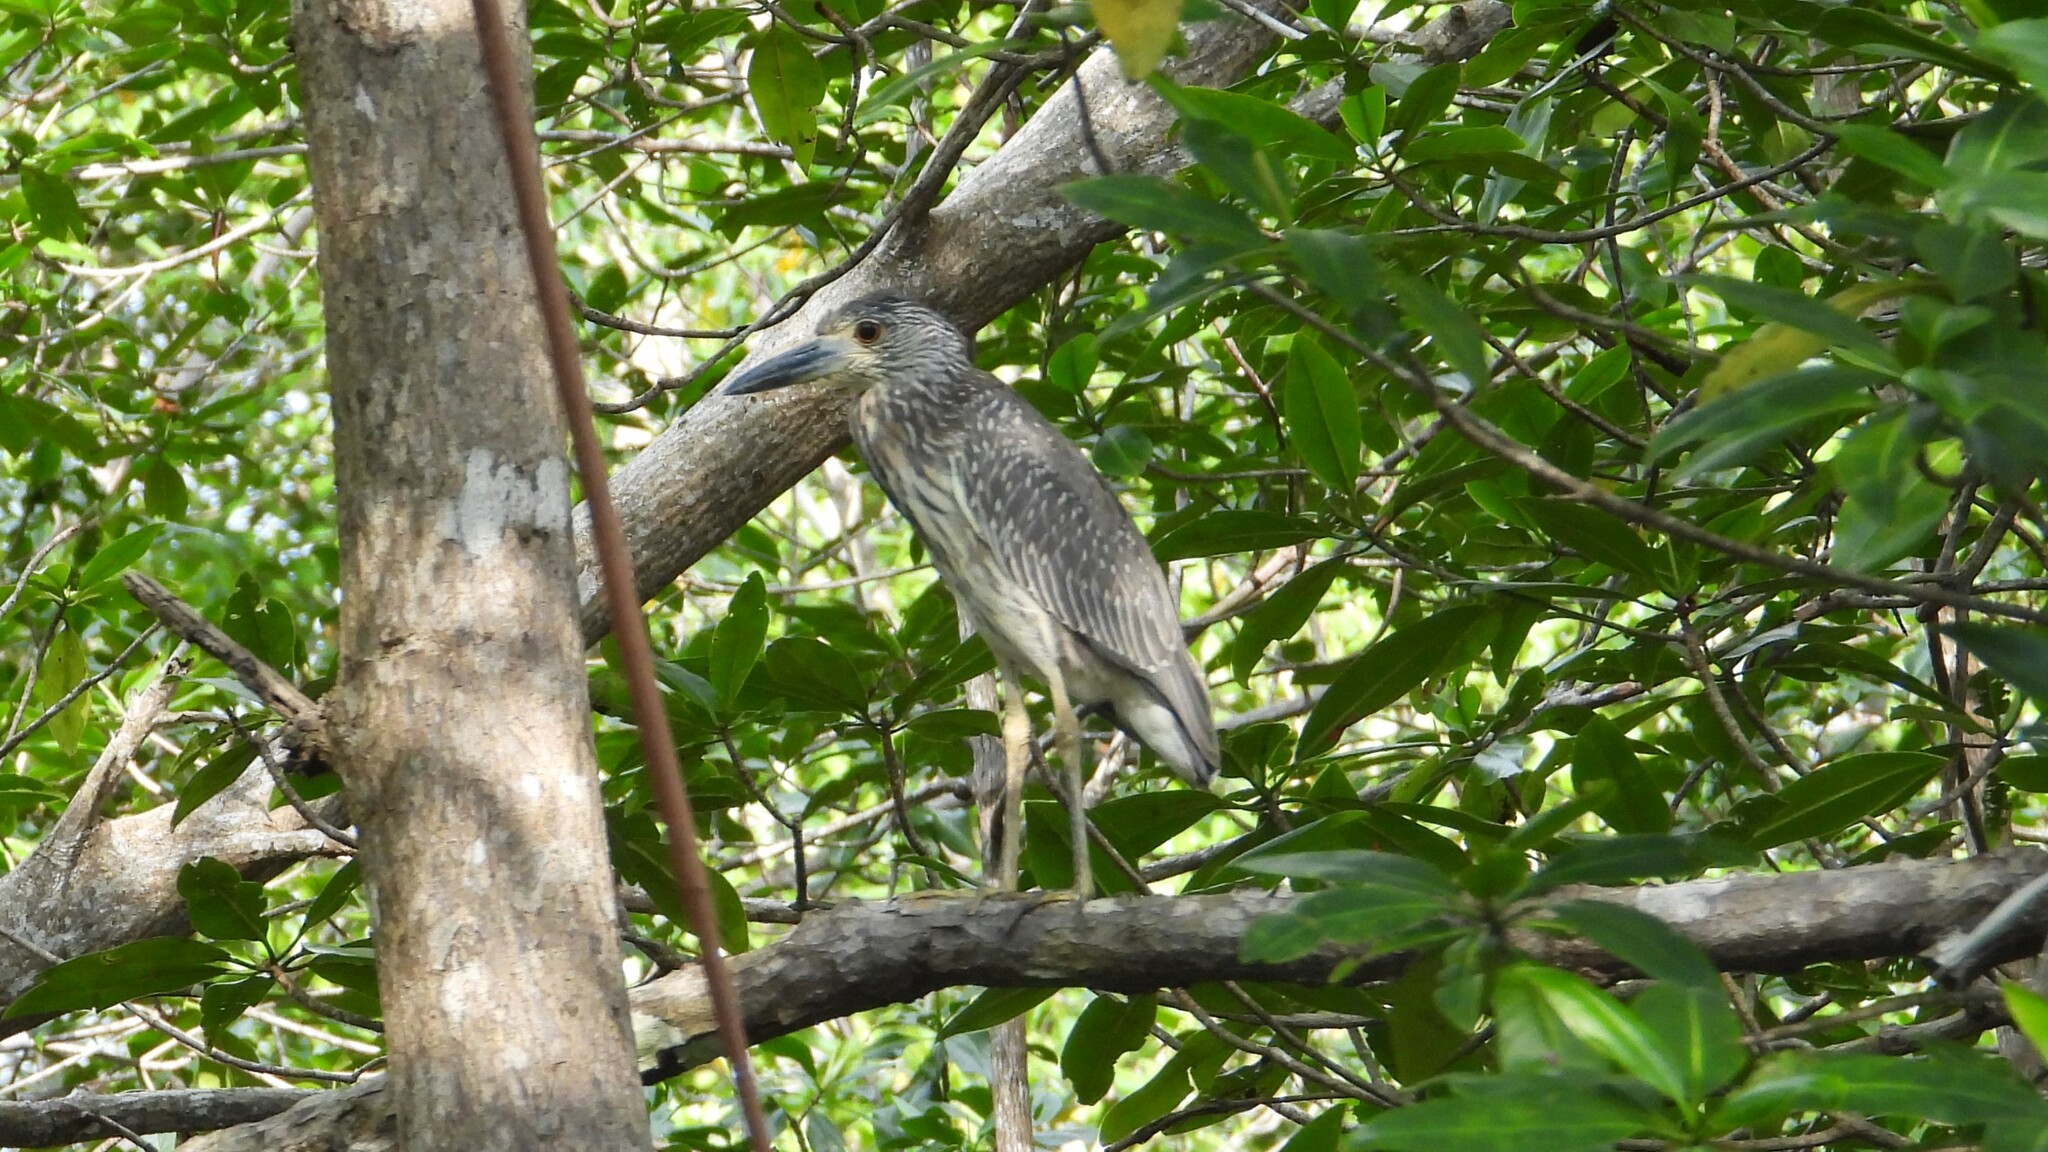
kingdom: Animalia
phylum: Chordata
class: Aves
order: Pelecaniformes
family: Ardeidae
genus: Nyctanassa
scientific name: Nyctanassa violacea
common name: Yellow-crowned night heron
